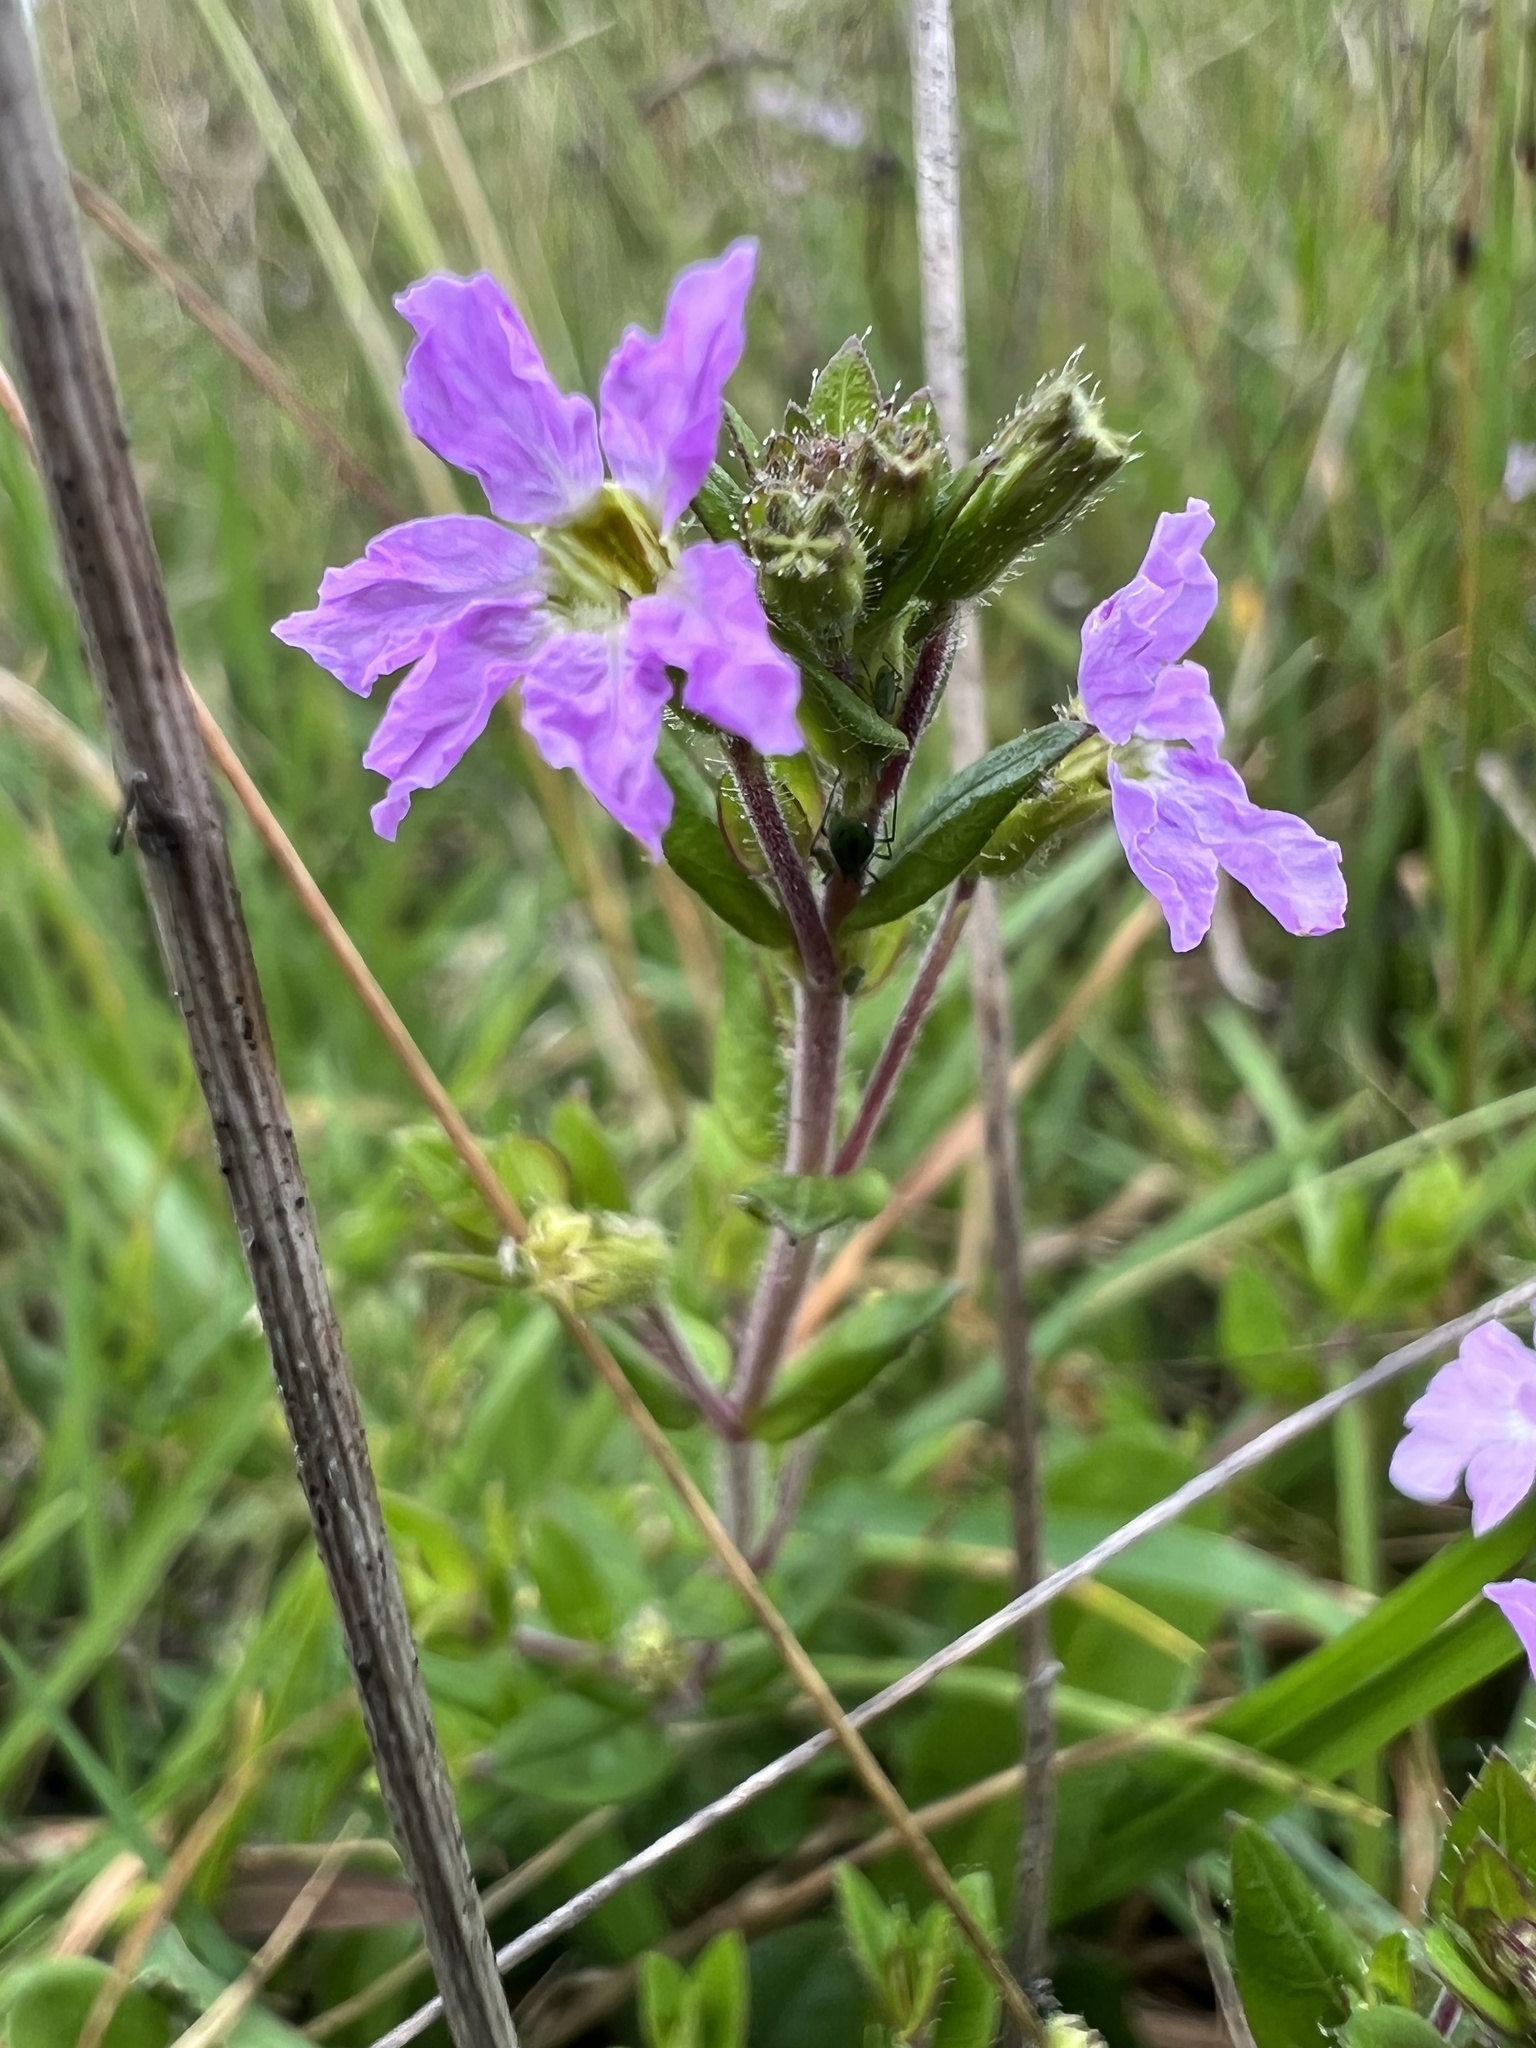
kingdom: Plantae
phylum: Tracheophyta
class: Magnoliopsida
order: Myrtales
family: Lythraceae
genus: Cuphea
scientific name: Cuphea ciliata
